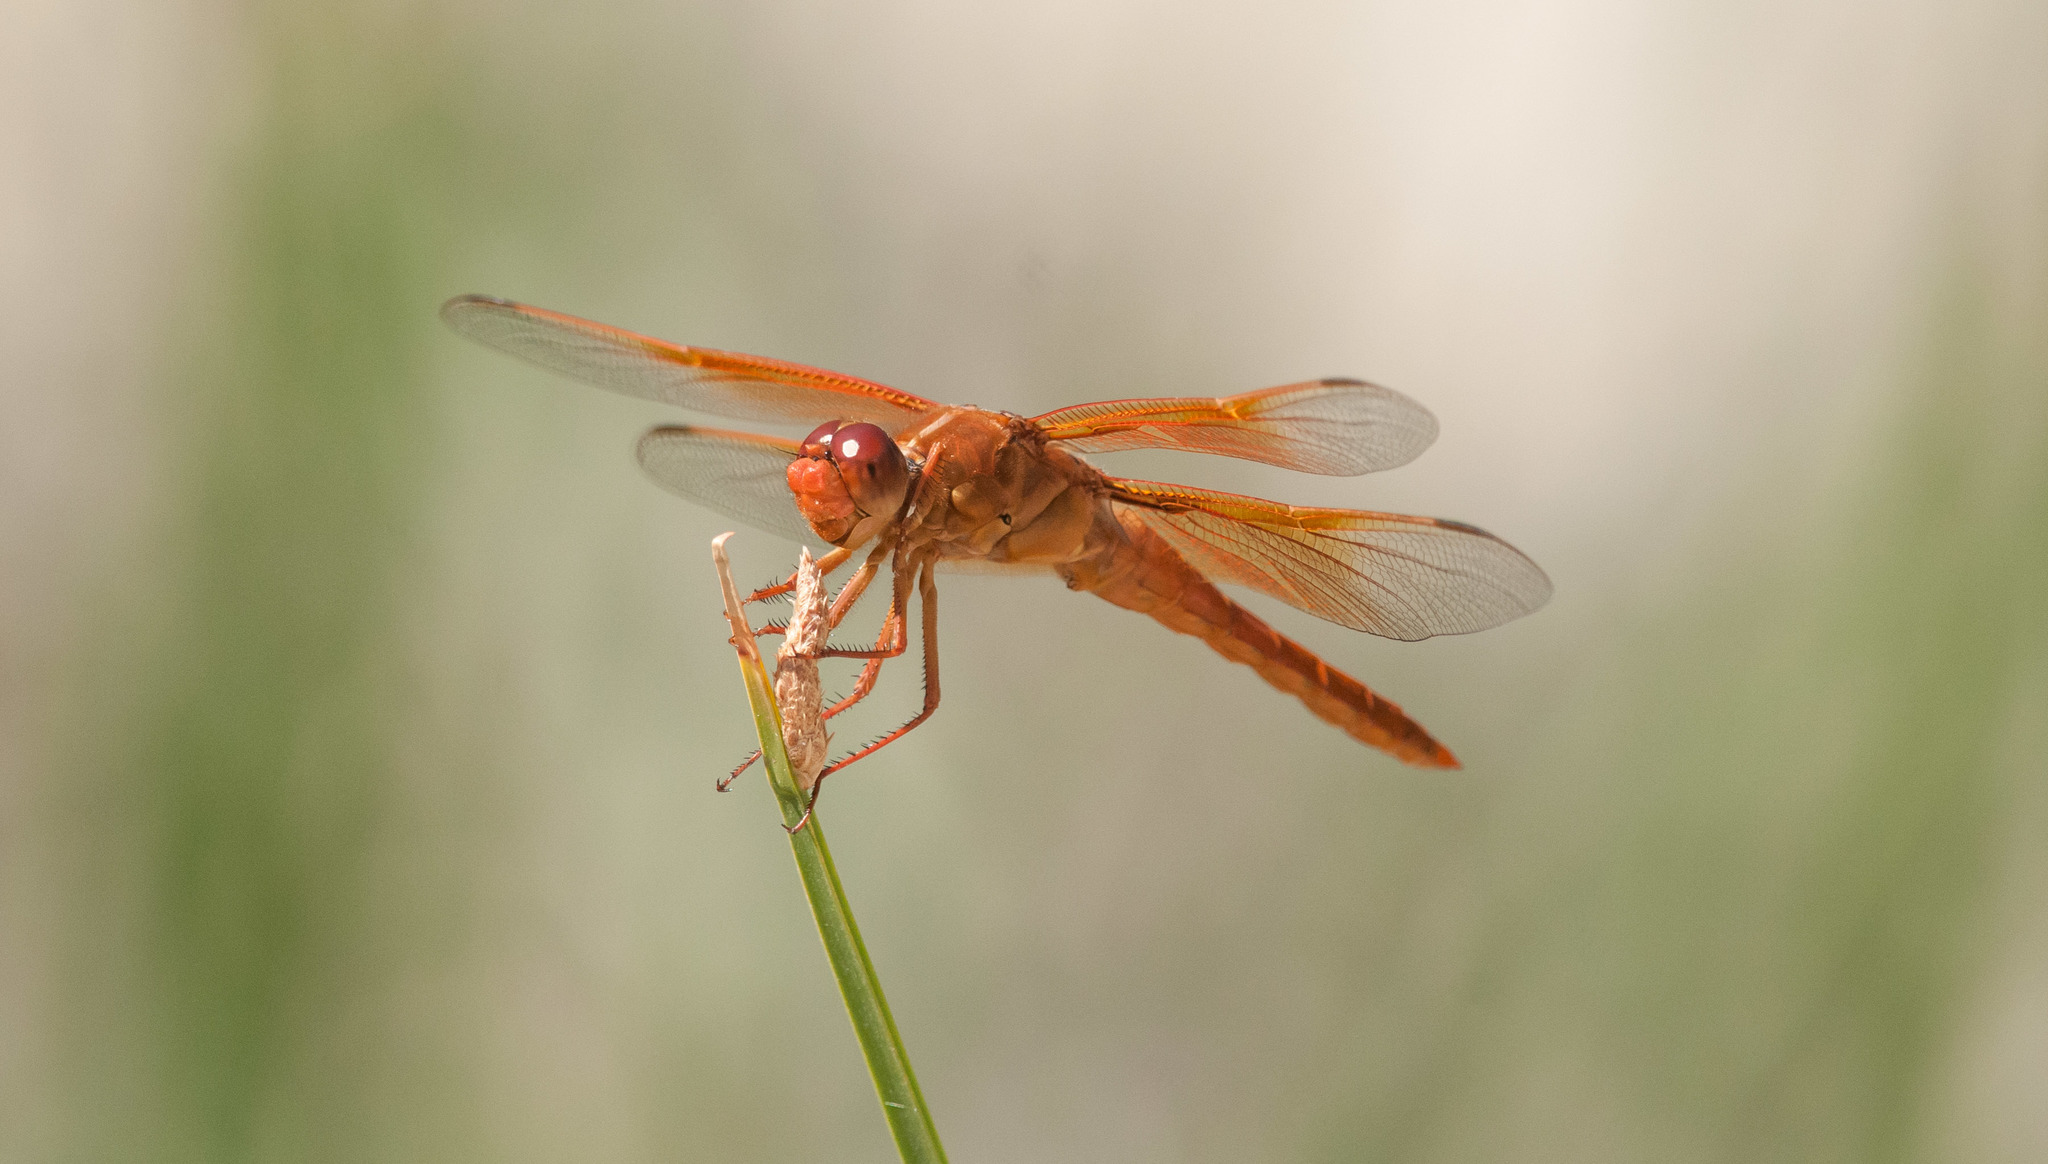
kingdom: Animalia
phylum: Arthropoda
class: Insecta
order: Odonata
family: Libellulidae
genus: Libellula
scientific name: Libellula saturata
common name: Flame skimmer
